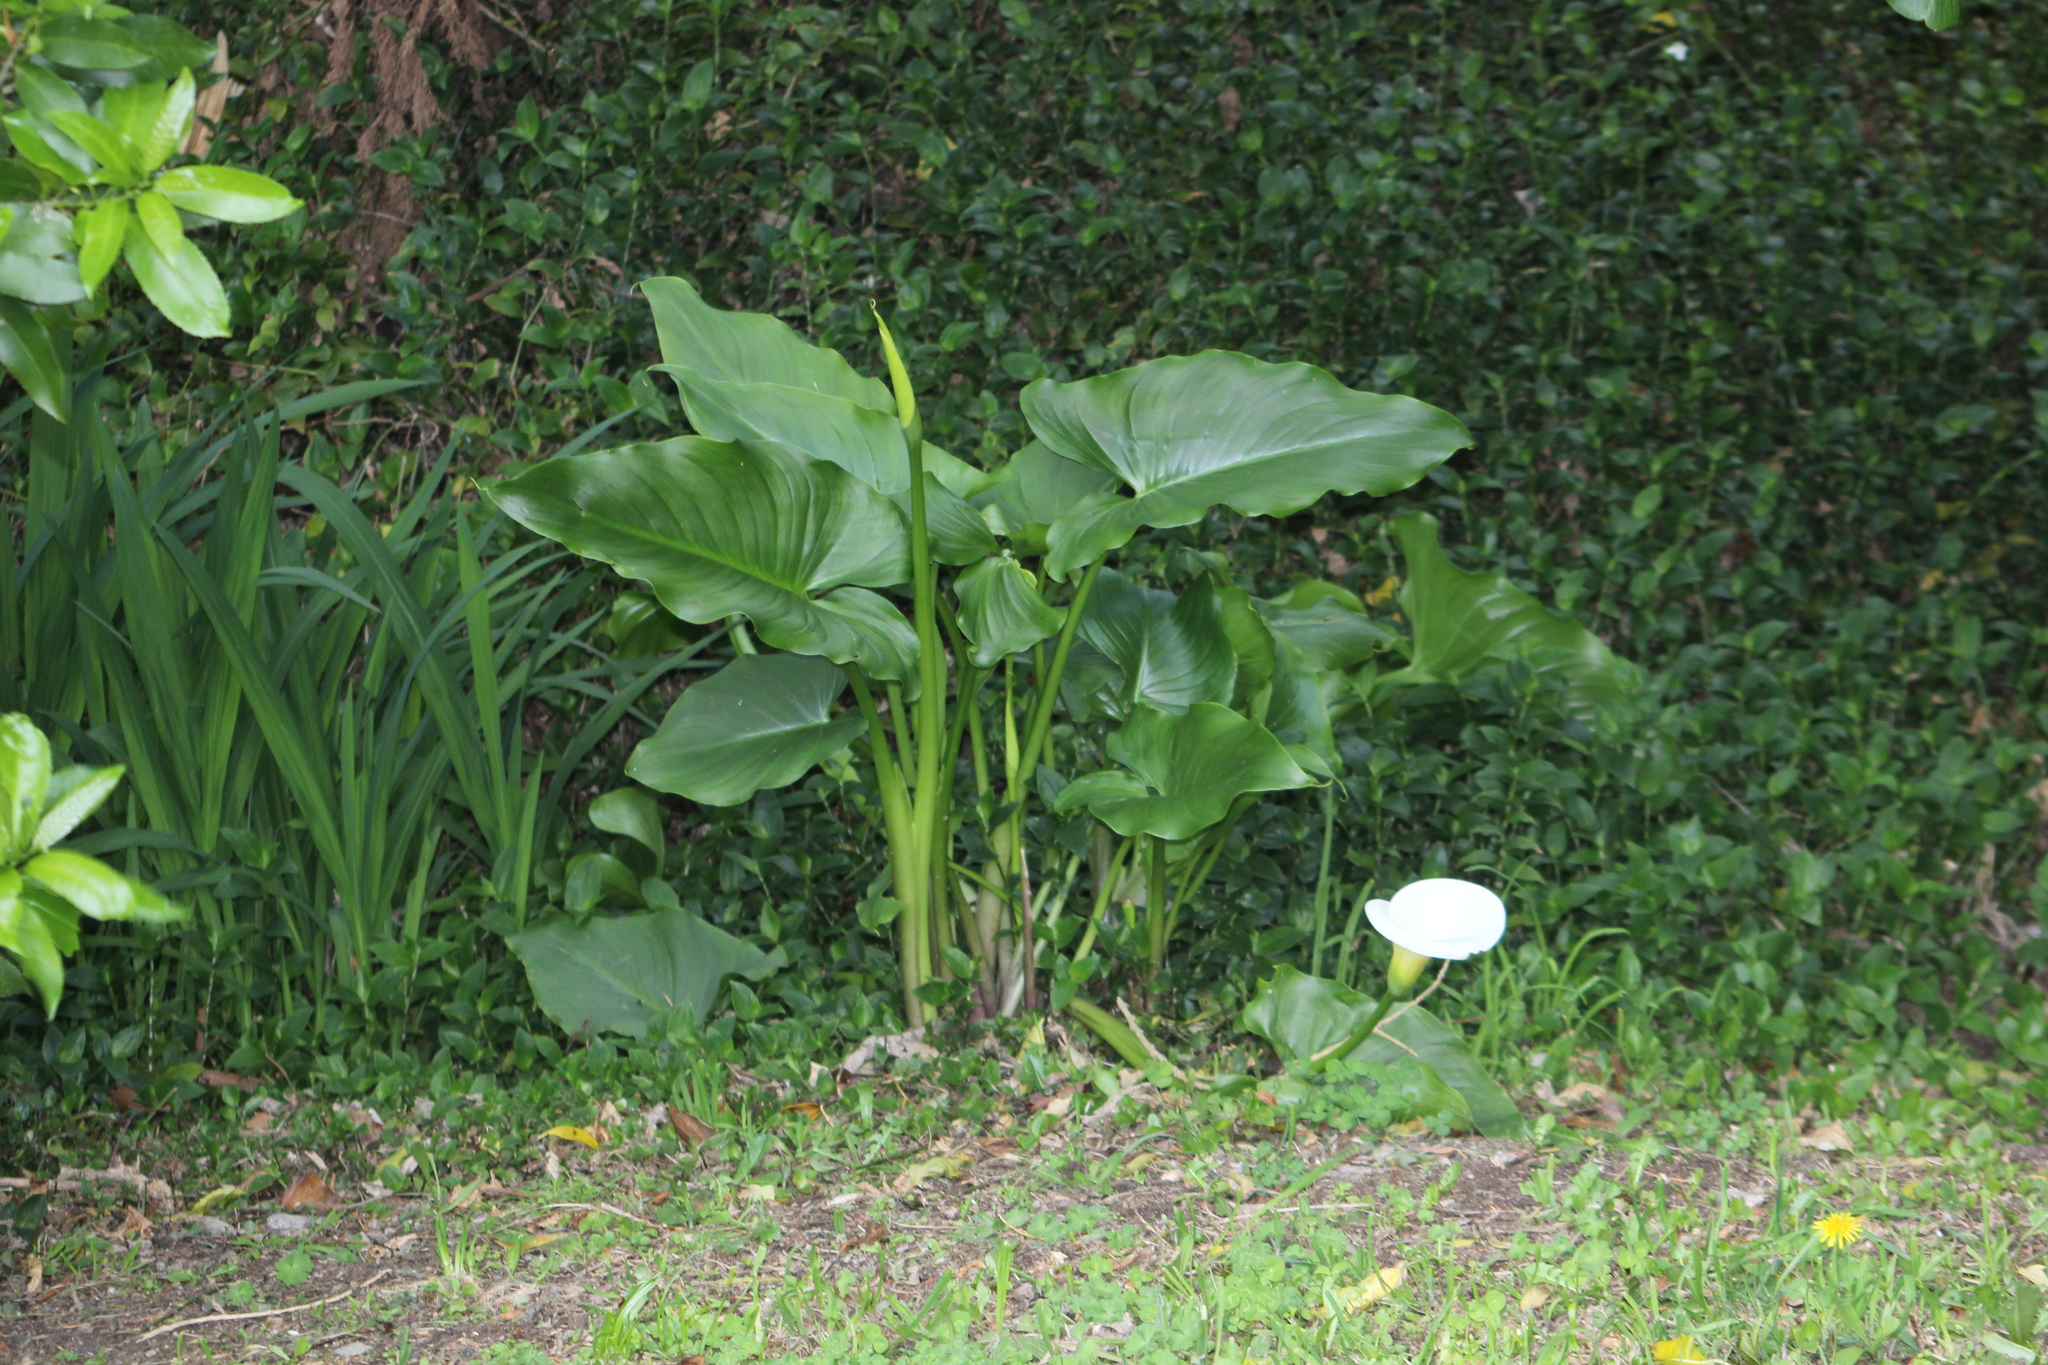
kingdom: Plantae
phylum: Tracheophyta
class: Liliopsida
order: Alismatales
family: Araceae
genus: Zantedeschia
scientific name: Zantedeschia aethiopica
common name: Altar-lily
